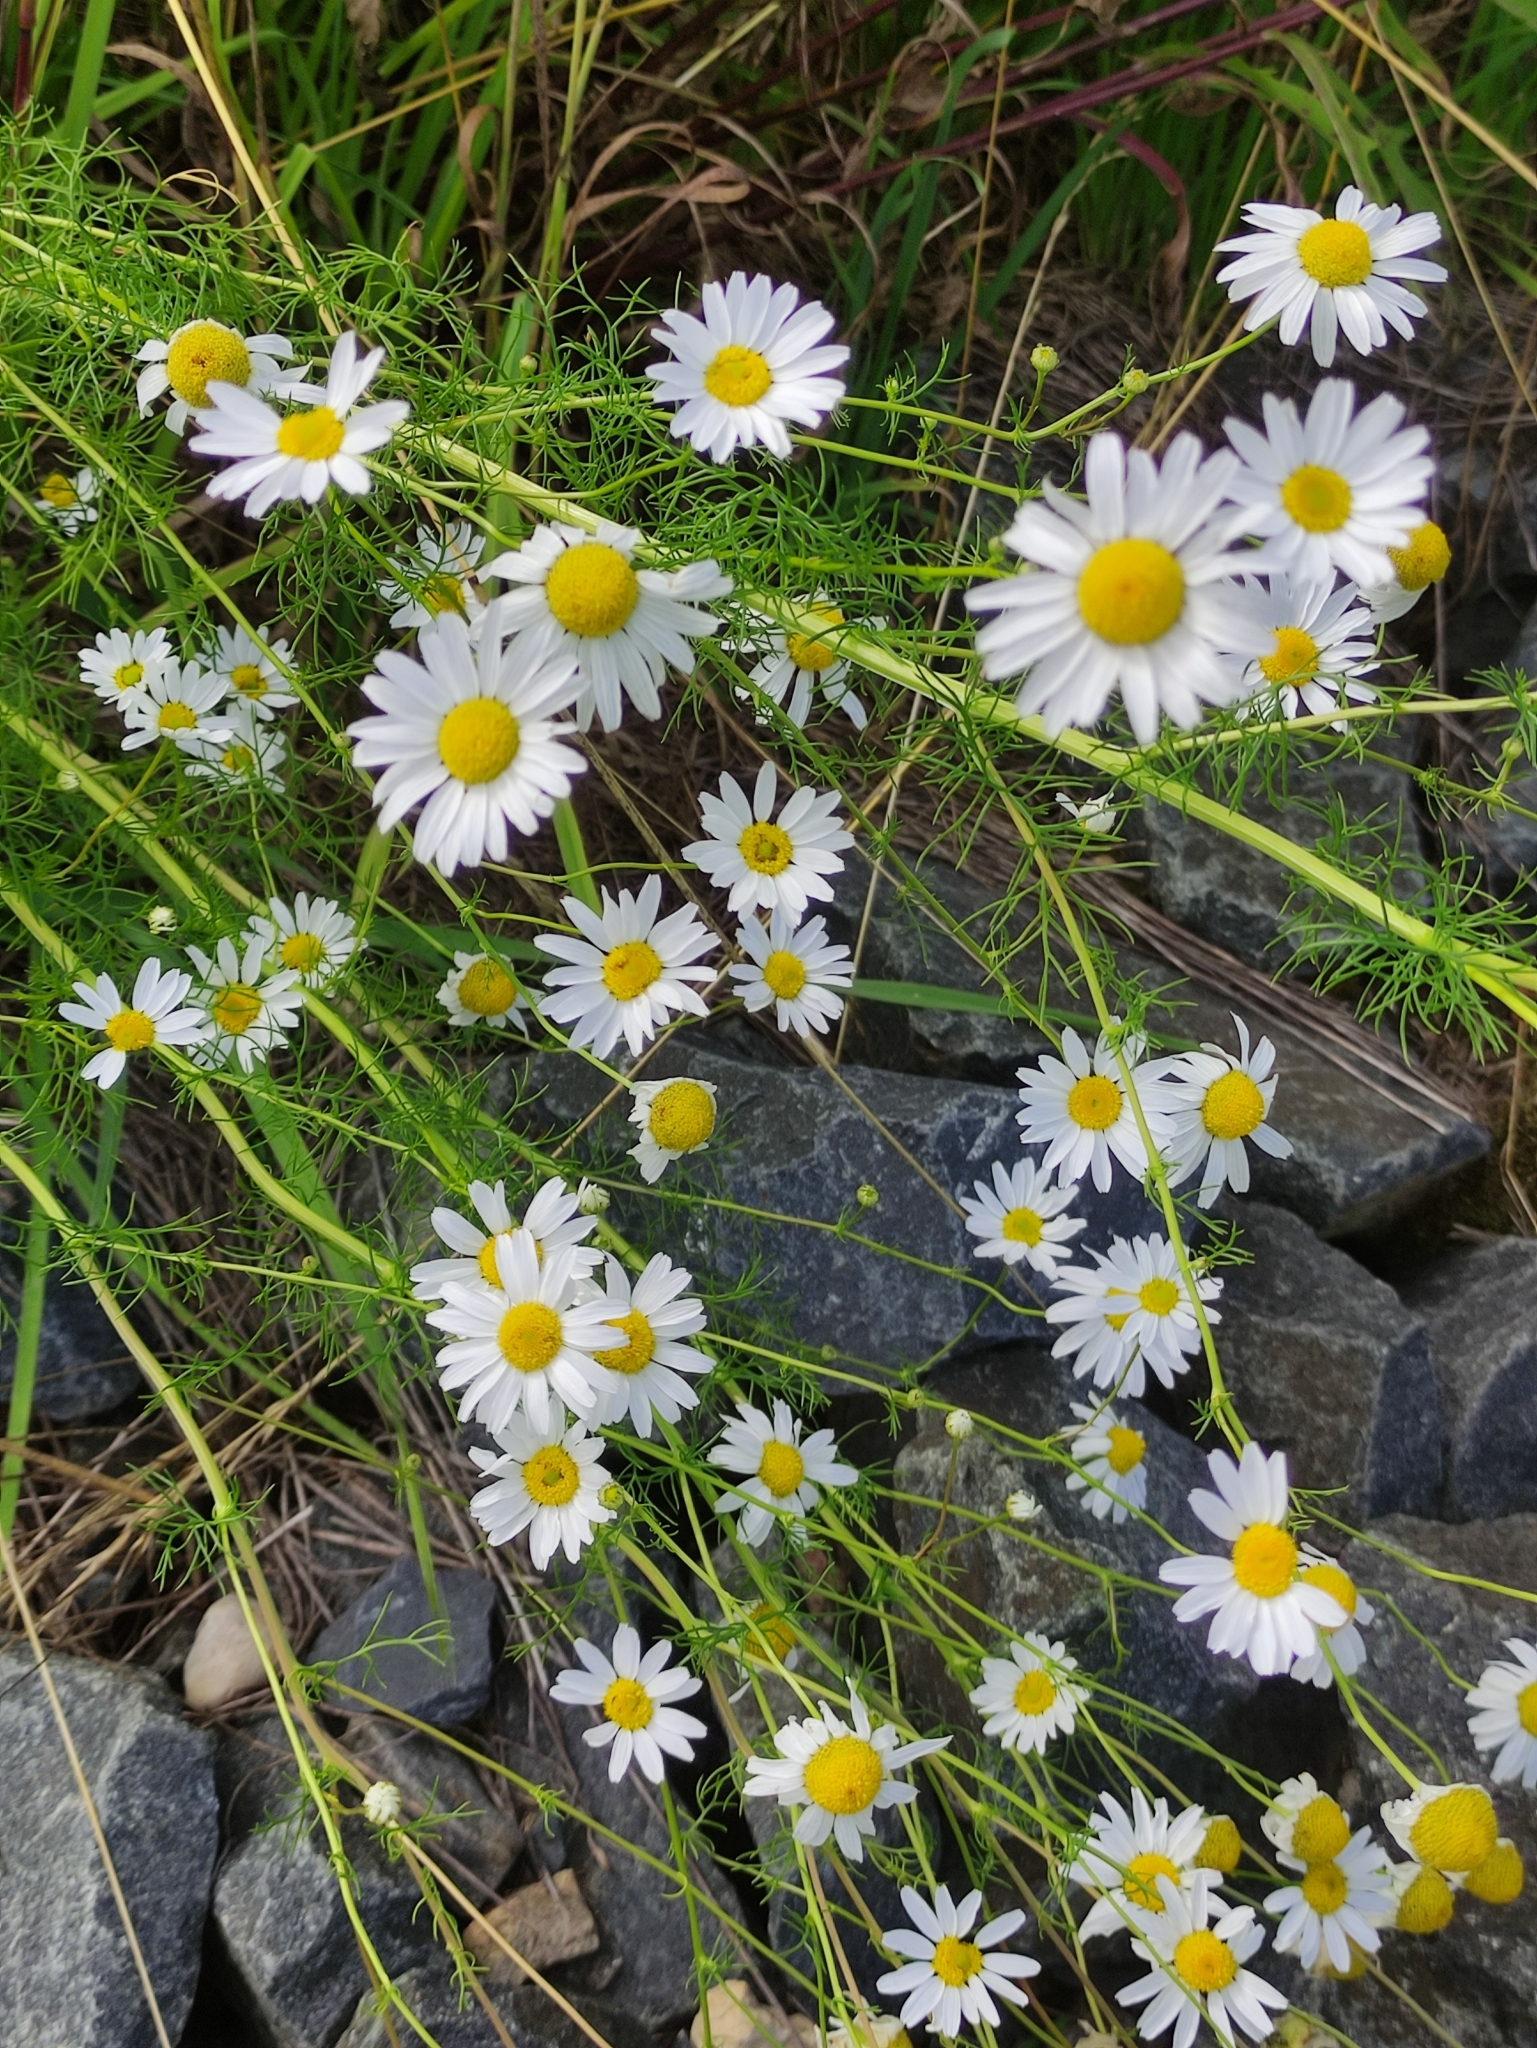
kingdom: Plantae
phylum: Tracheophyta
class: Magnoliopsida
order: Asterales
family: Asteraceae
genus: Tripleurospermum
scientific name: Tripleurospermum inodorum
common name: Scentless mayweed
